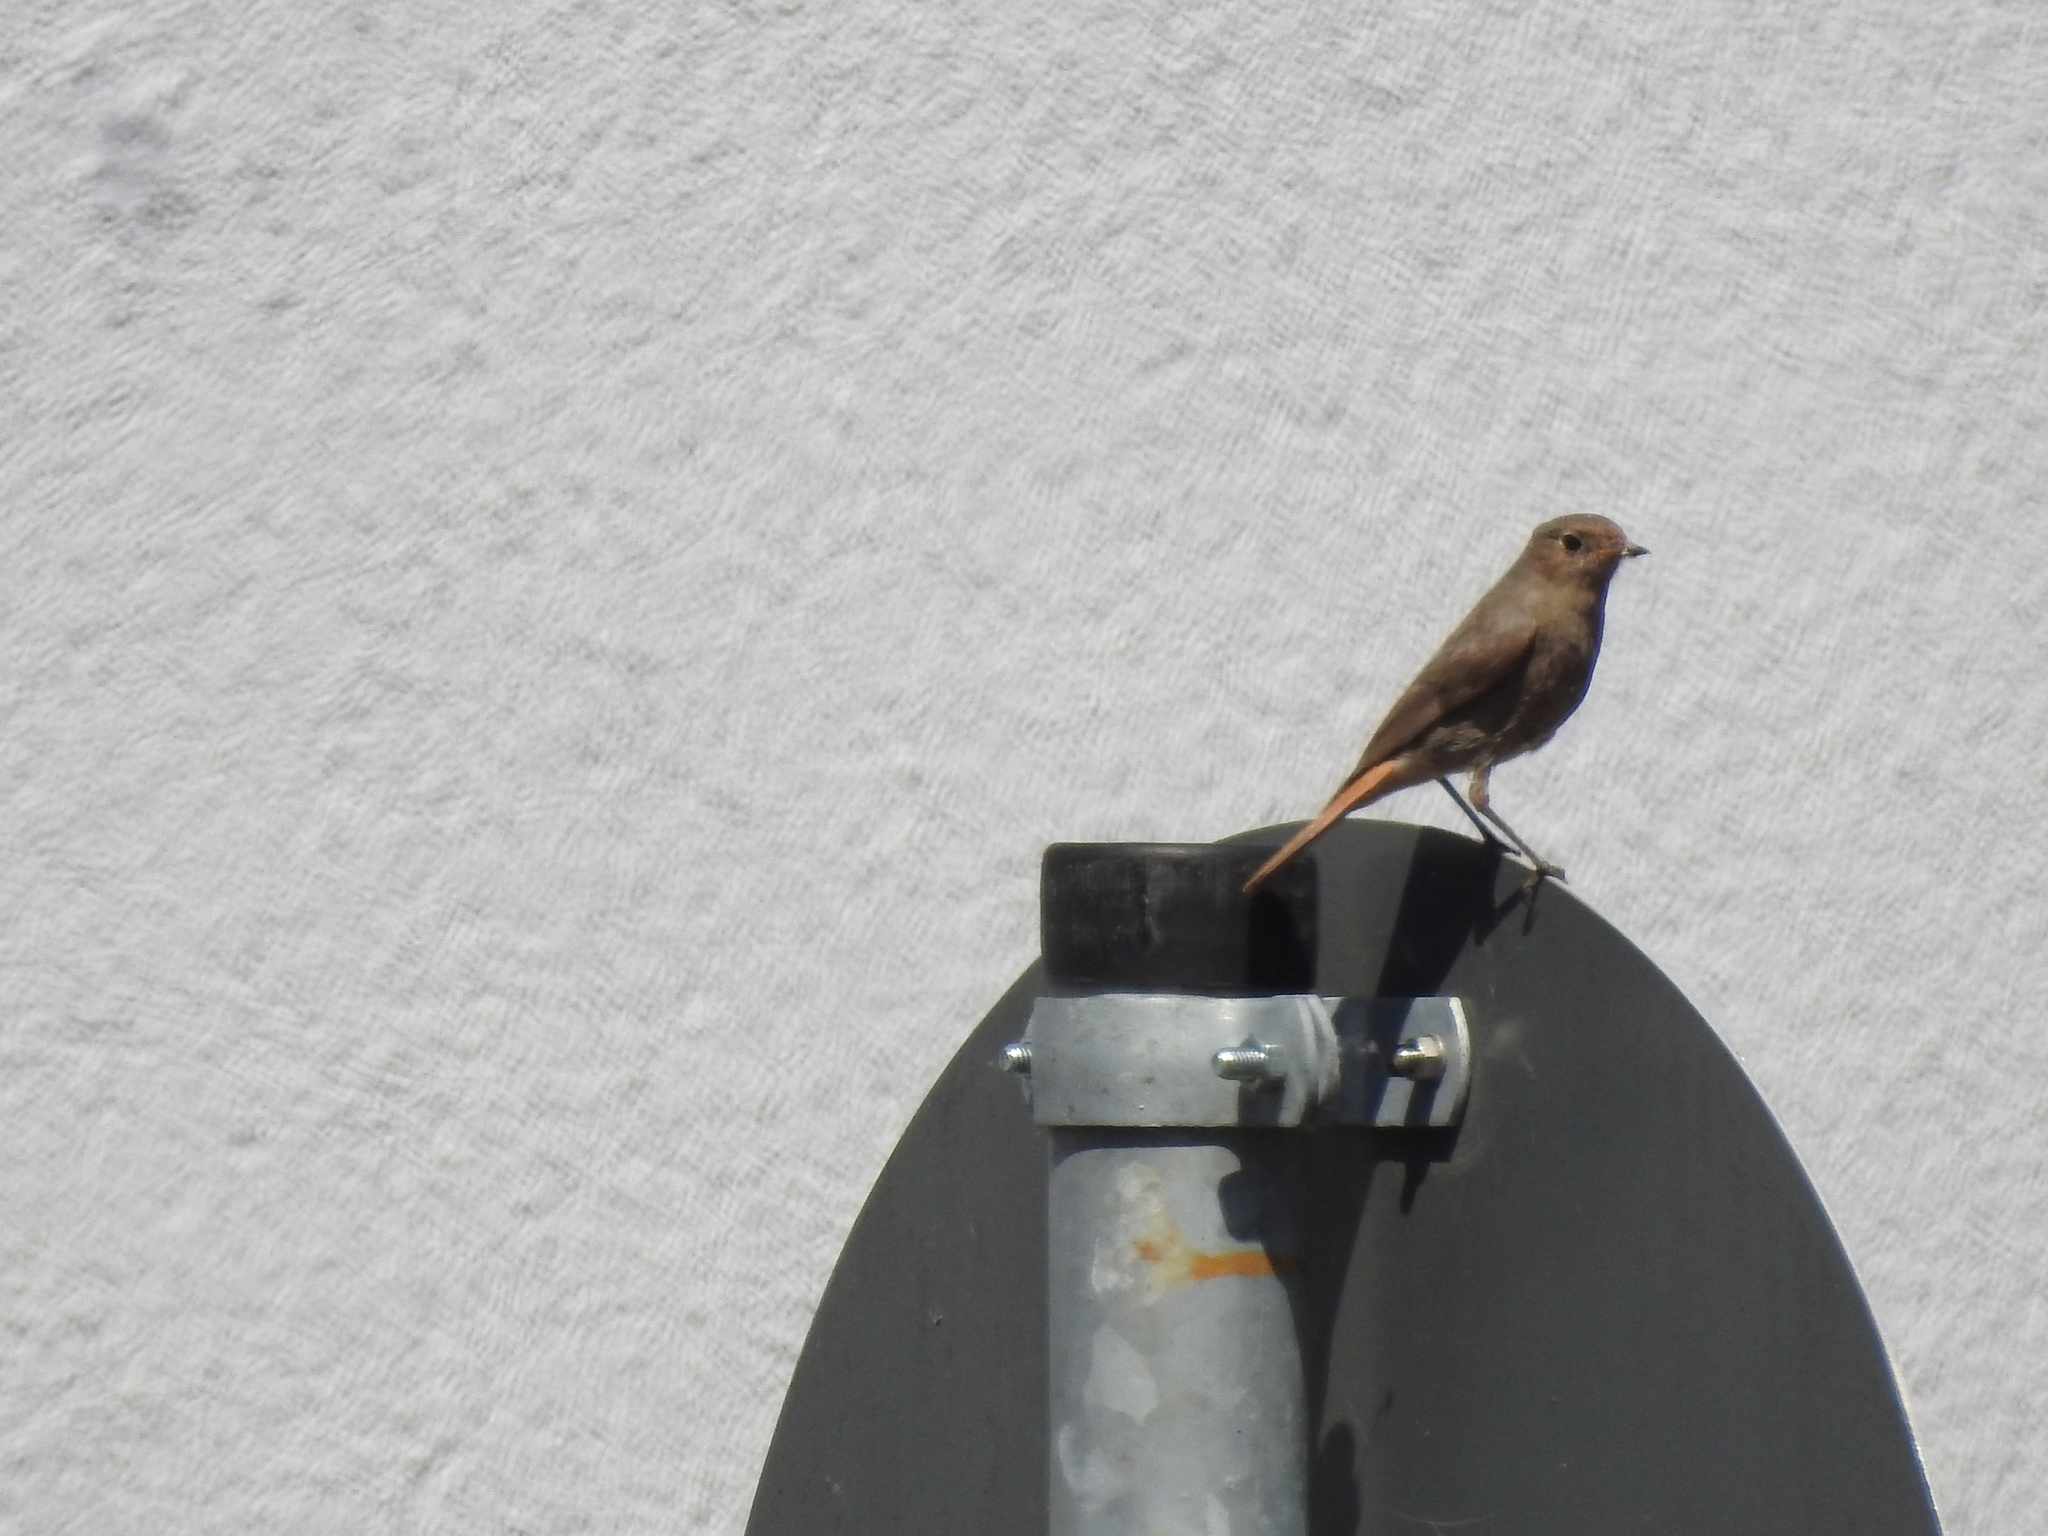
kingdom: Animalia
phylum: Chordata
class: Aves
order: Passeriformes
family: Muscicapidae
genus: Phoenicurus
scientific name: Phoenicurus ochruros
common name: Black redstart
